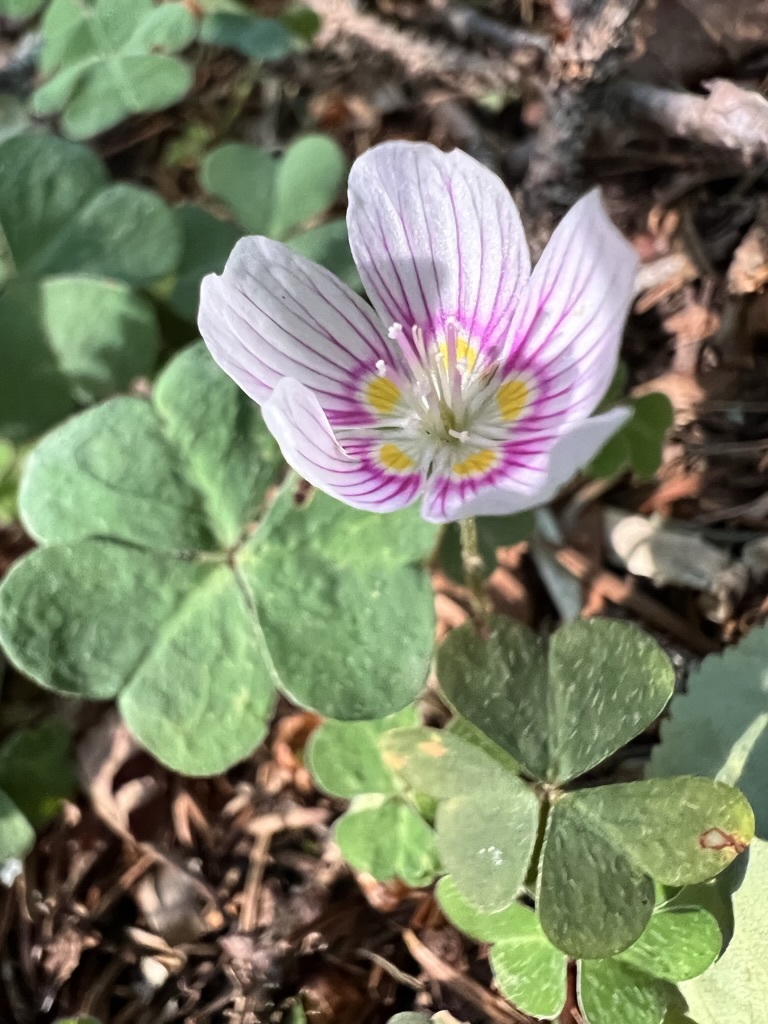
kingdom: Plantae
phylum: Tracheophyta
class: Magnoliopsida
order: Oxalidales
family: Oxalidaceae
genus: Oxalis
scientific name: Oxalis montana
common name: American wood-sorrel
